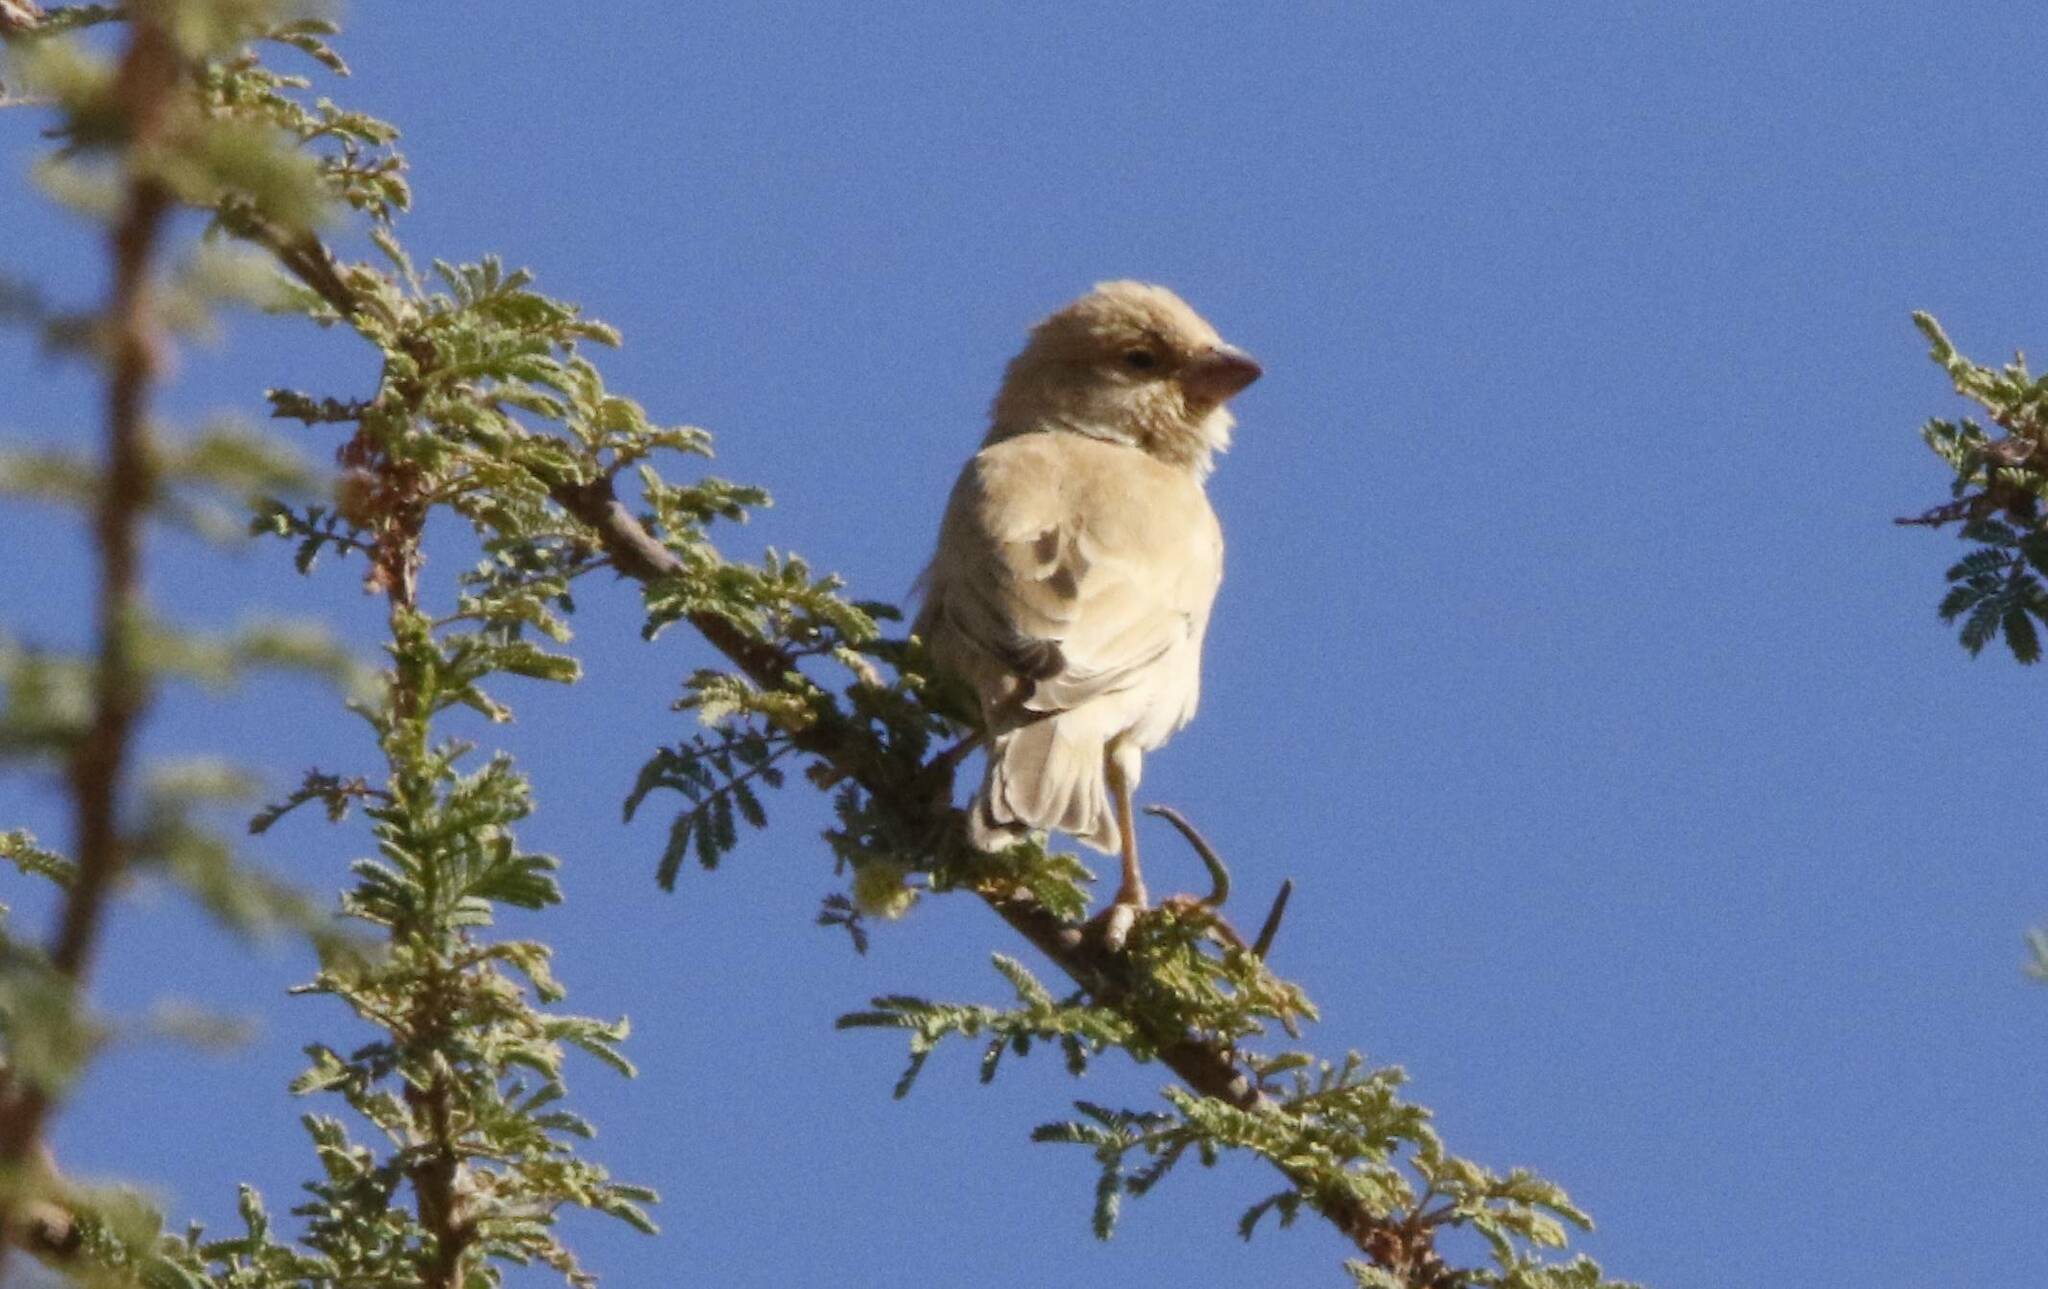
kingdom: Animalia
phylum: Chordata
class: Aves
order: Passeriformes
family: Passeridae
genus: Passer
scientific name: Passer simplex
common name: Desert sparrow
